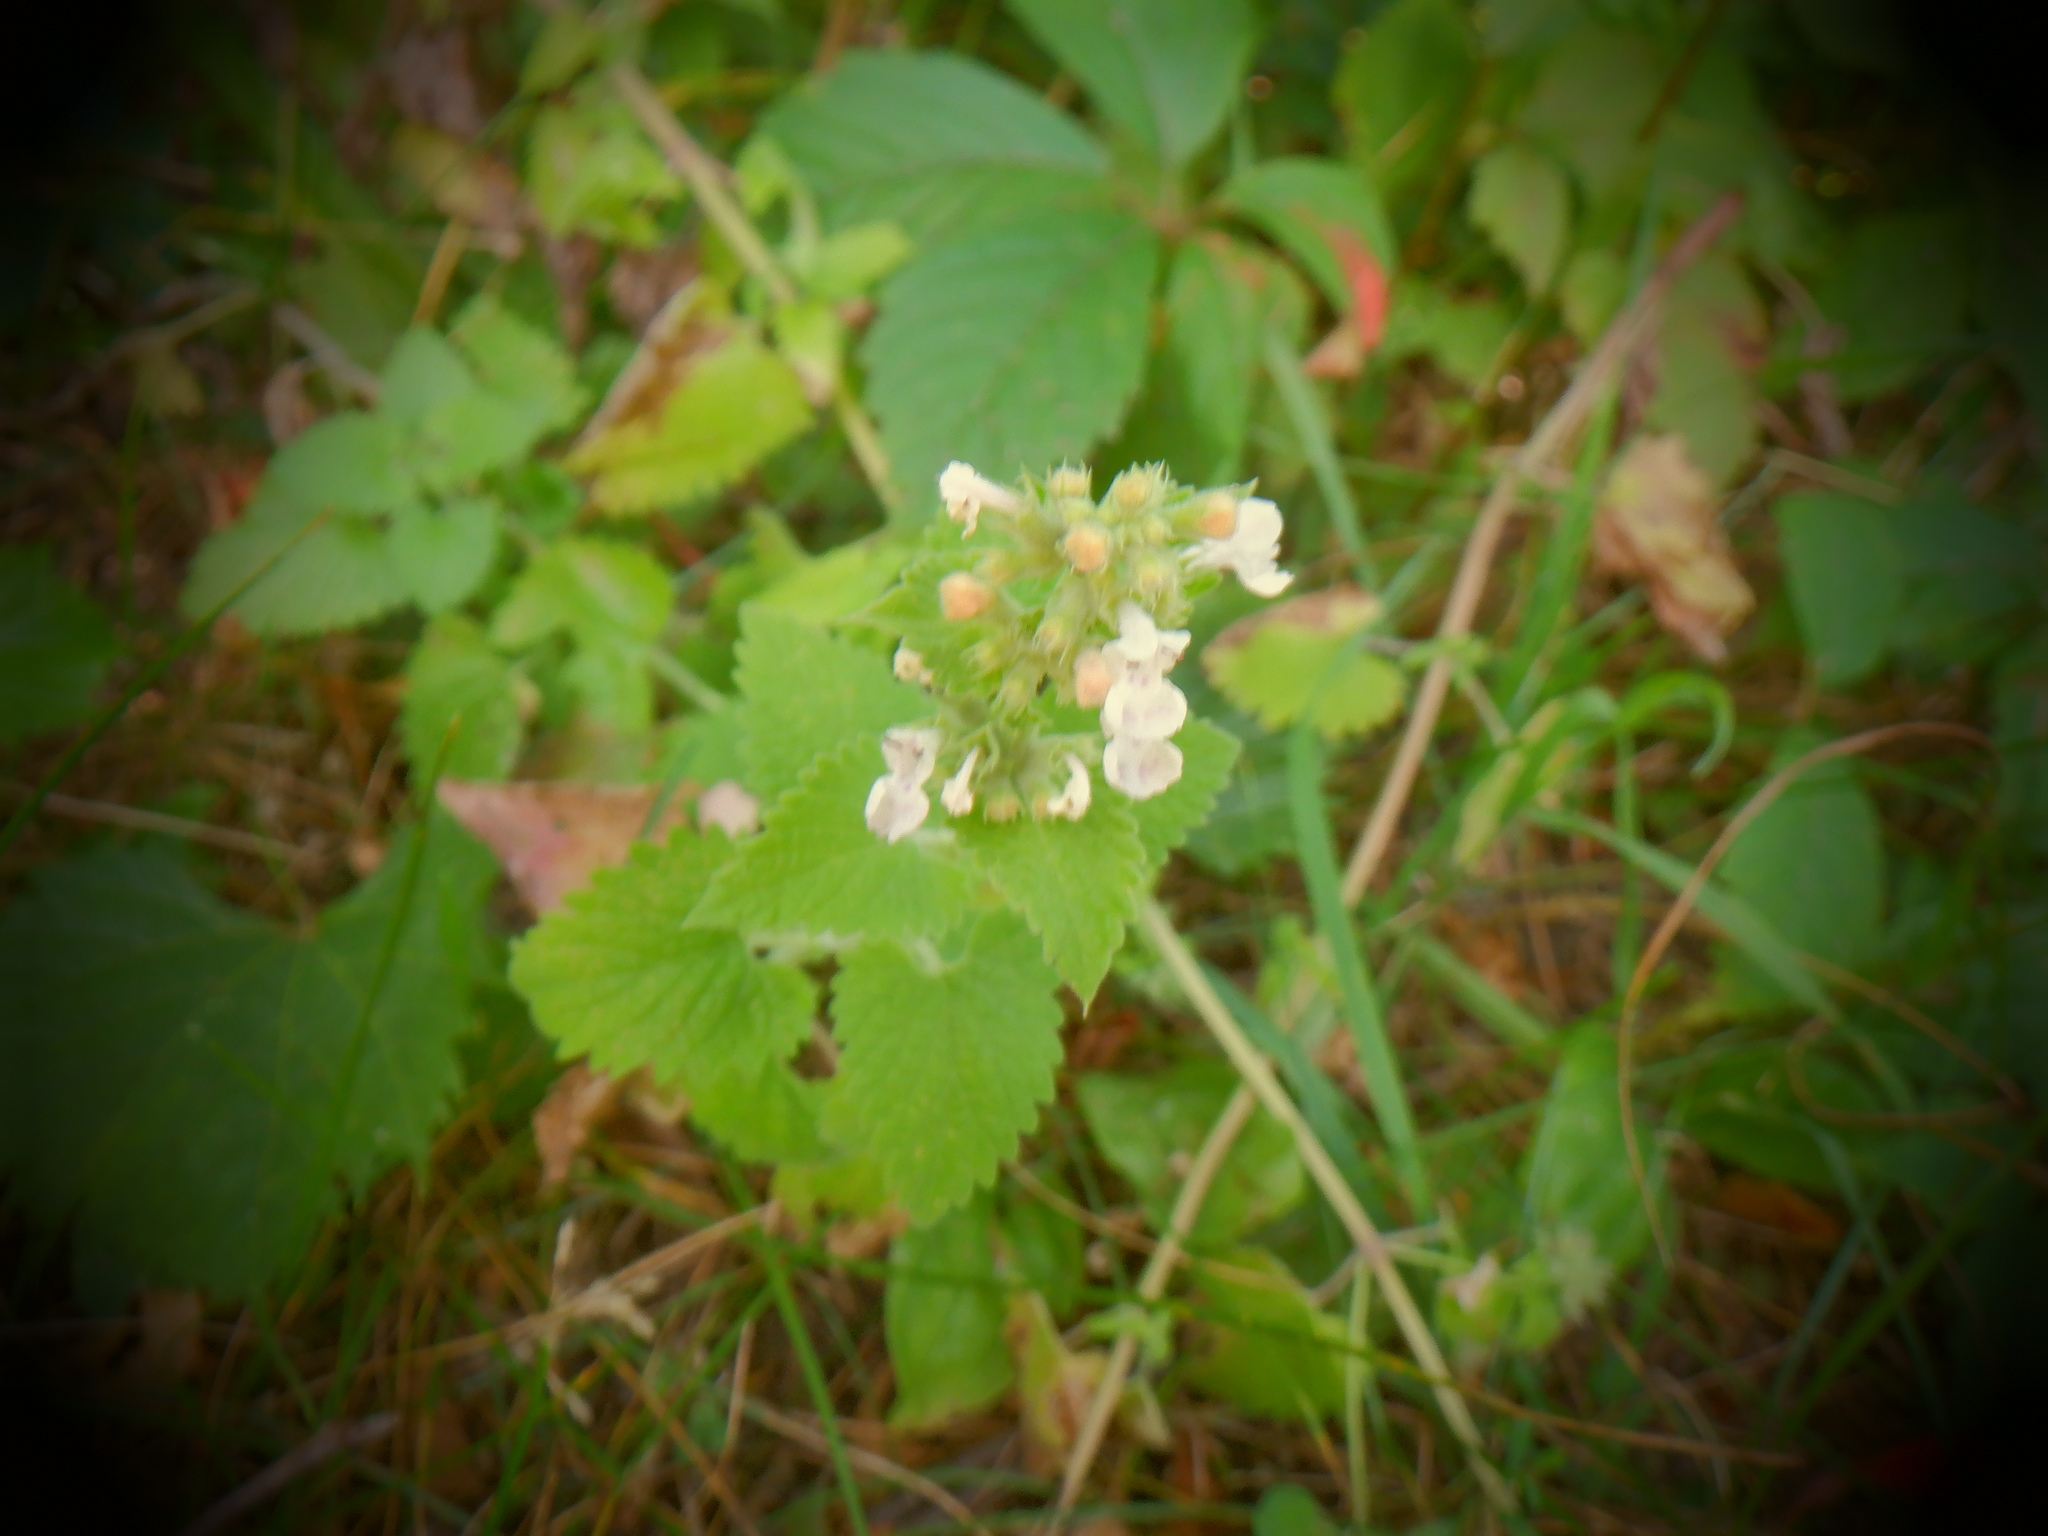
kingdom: Plantae
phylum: Tracheophyta
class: Magnoliopsida
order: Lamiales
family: Lamiaceae
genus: Nepeta
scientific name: Nepeta cataria
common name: Catnip
